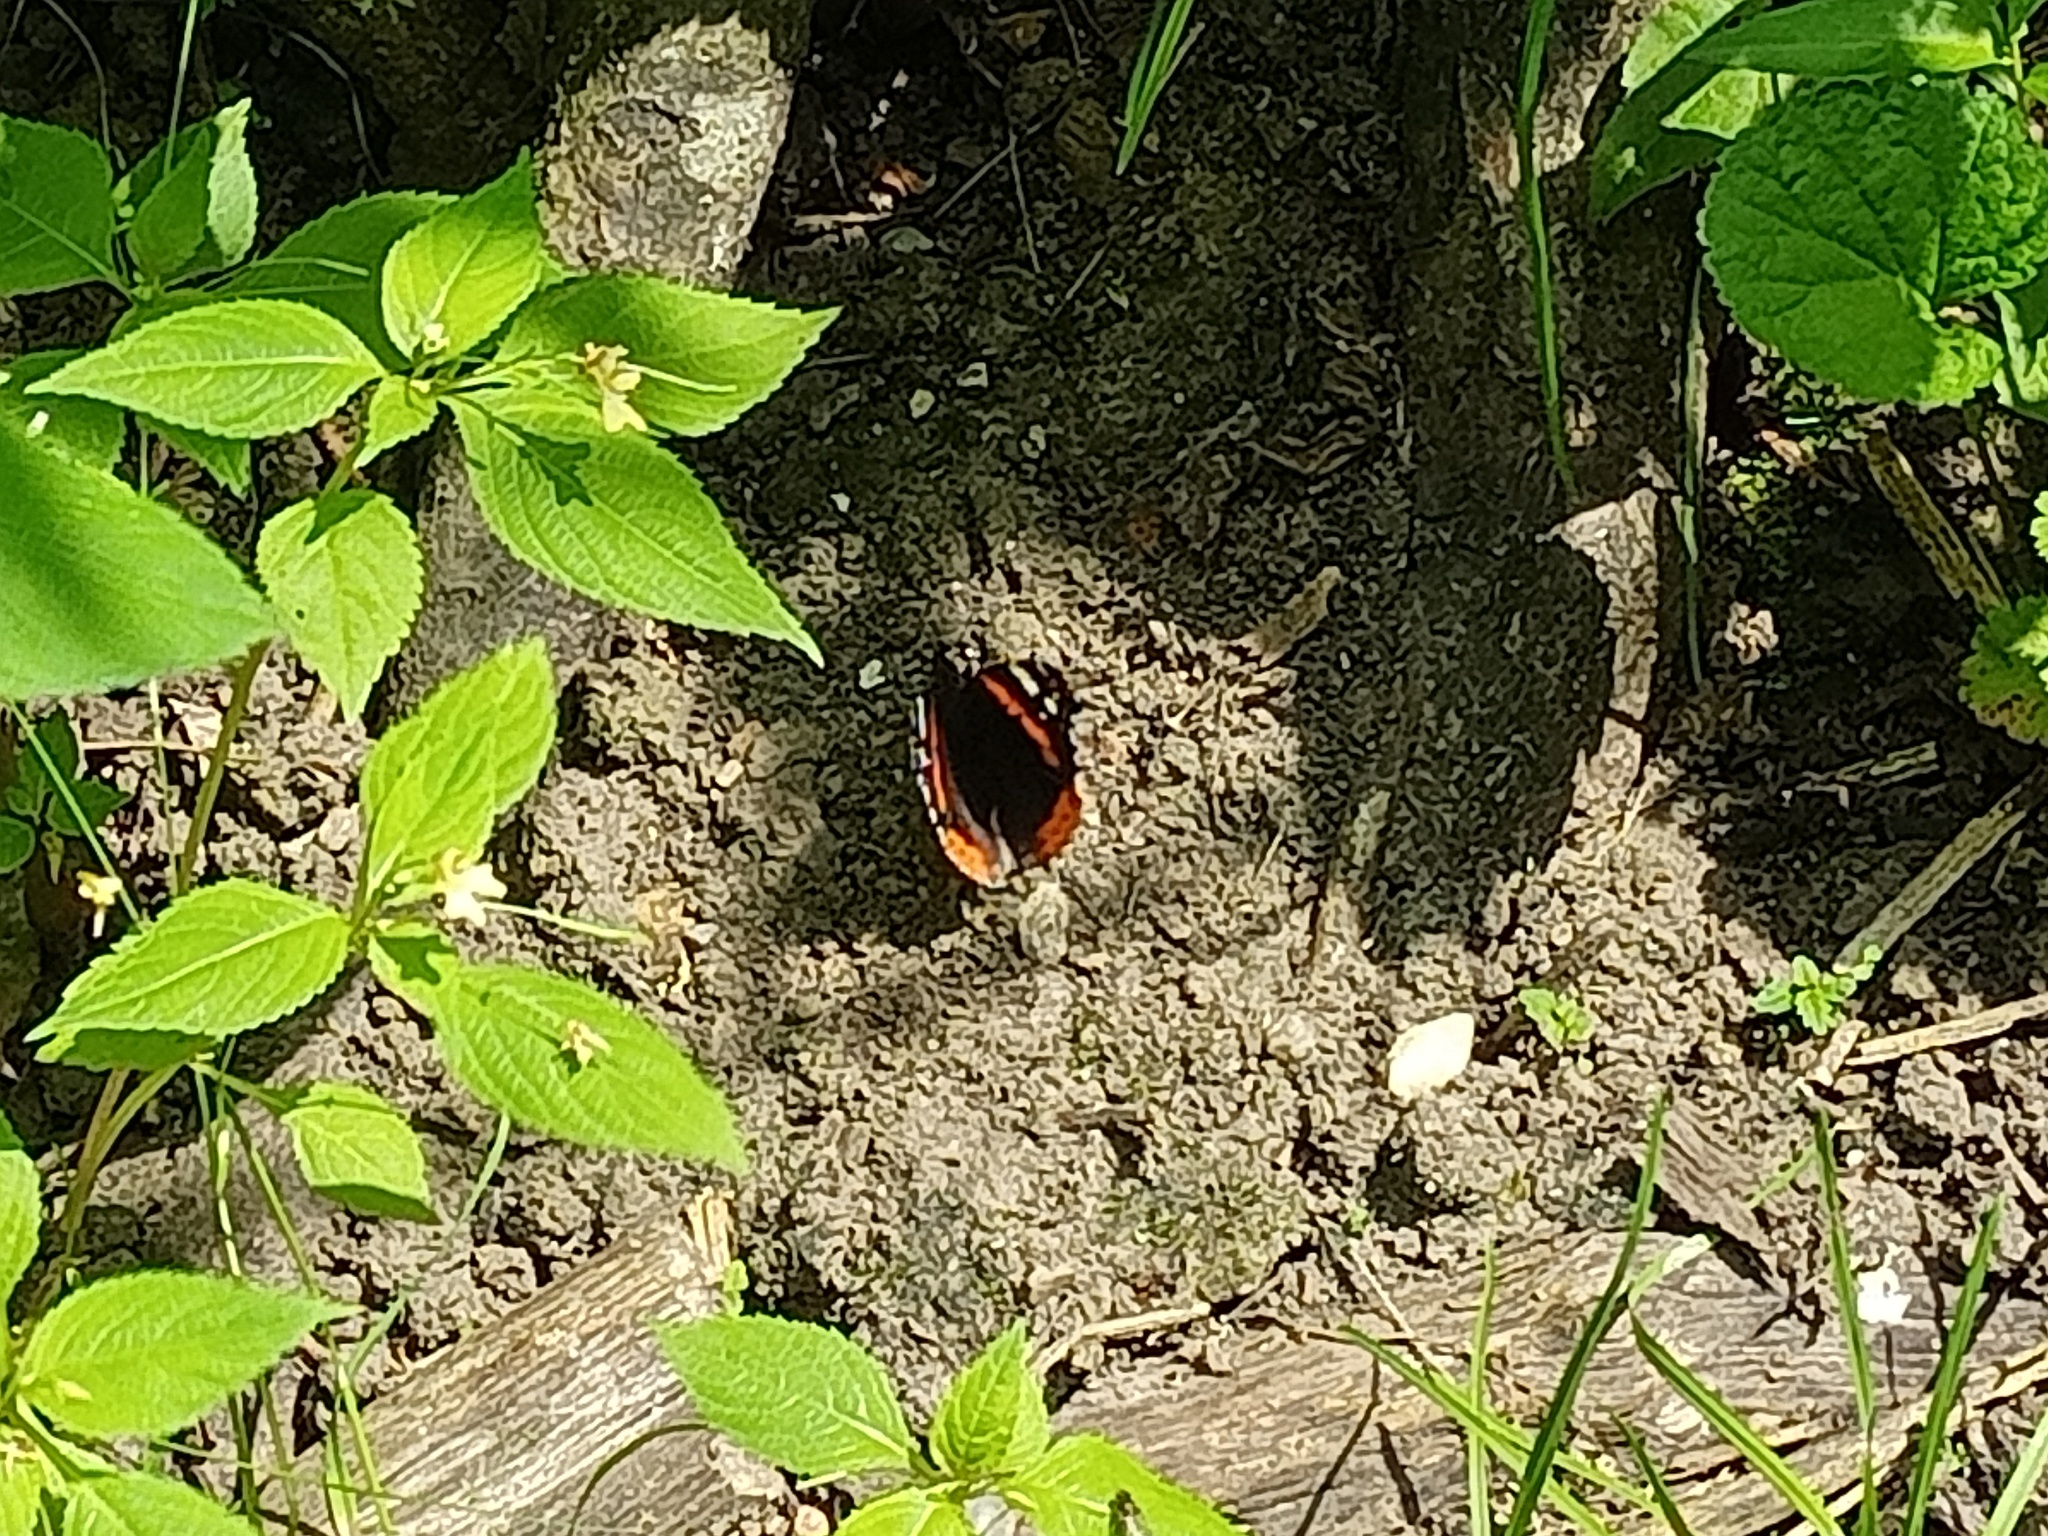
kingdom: Animalia
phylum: Arthropoda
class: Insecta
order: Lepidoptera
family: Nymphalidae
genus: Vanessa
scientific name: Vanessa atalanta
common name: Red admiral
